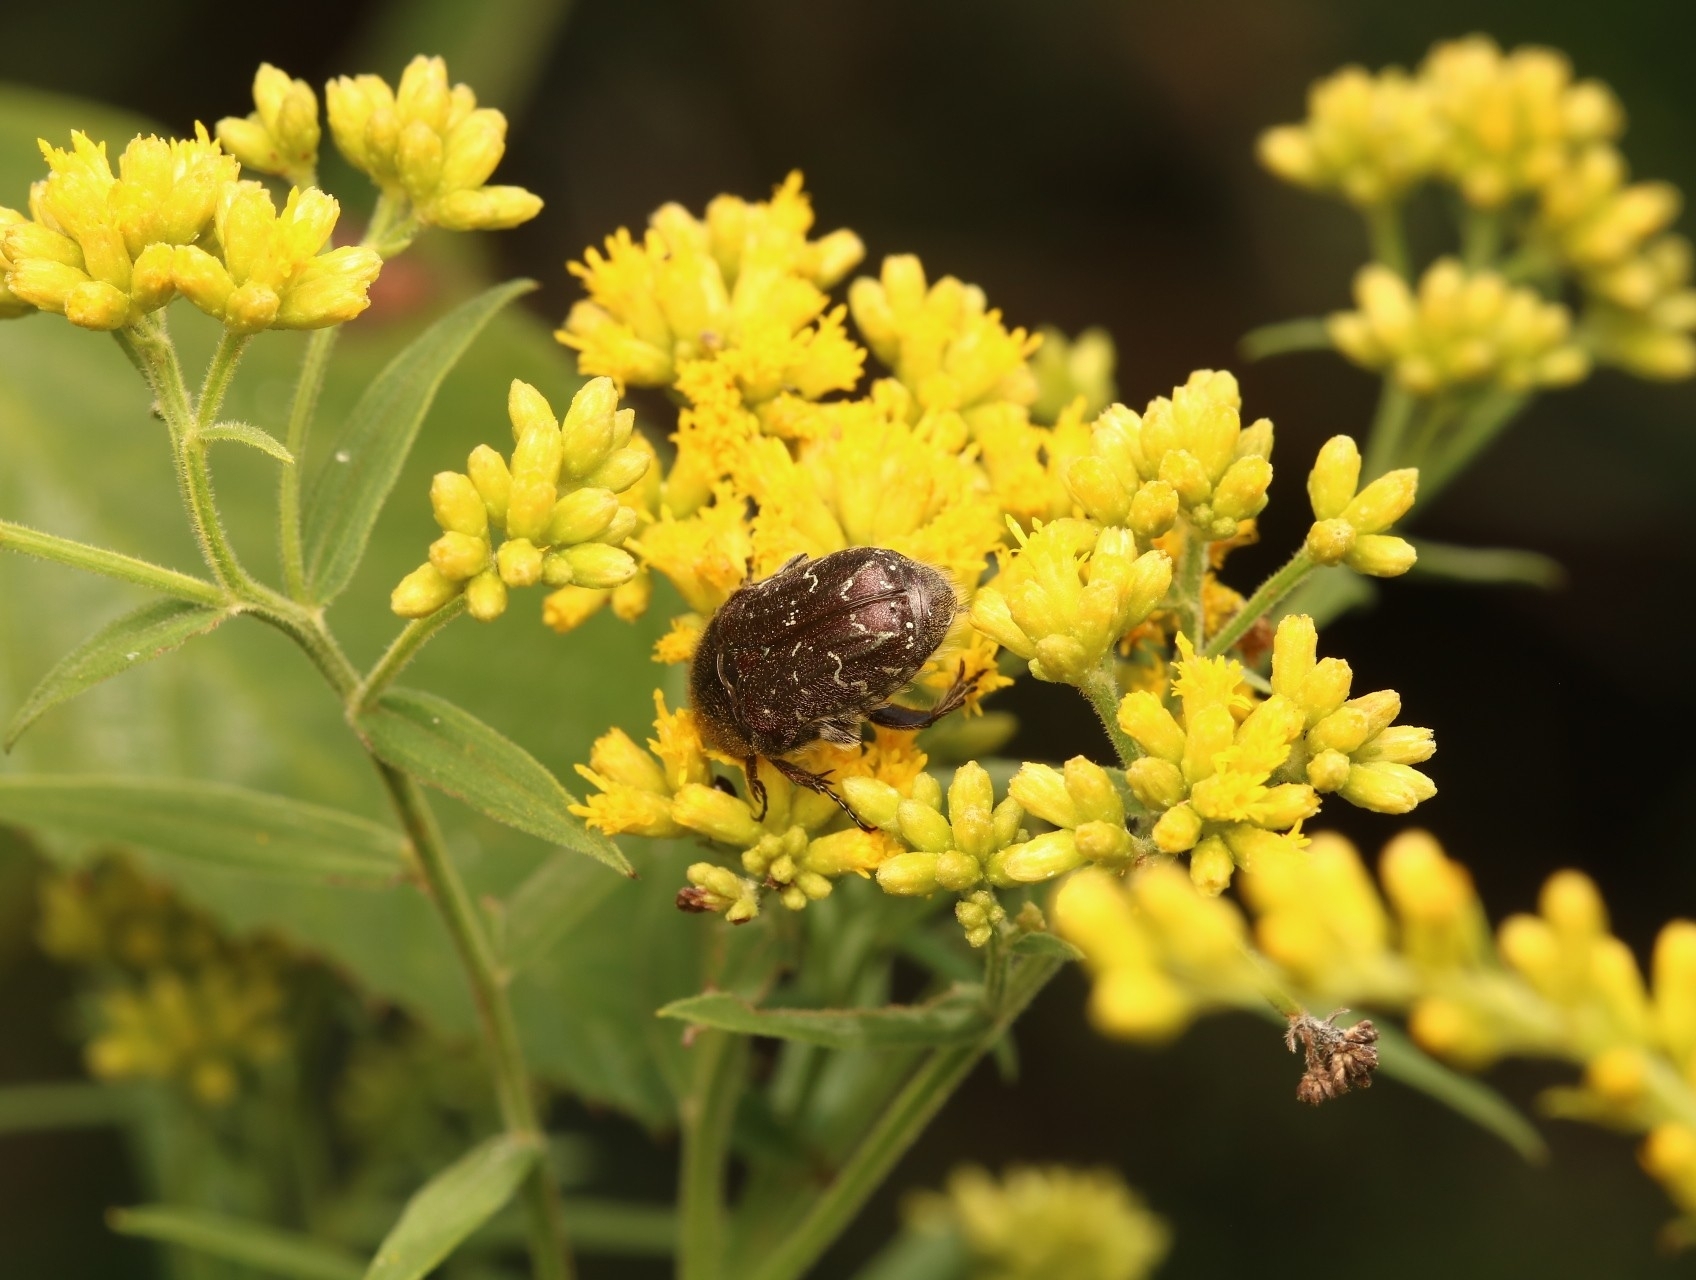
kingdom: Animalia
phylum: Arthropoda
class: Insecta
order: Coleoptera
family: Scarabaeidae
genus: Euphoria
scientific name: Euphoria sepulcralis
